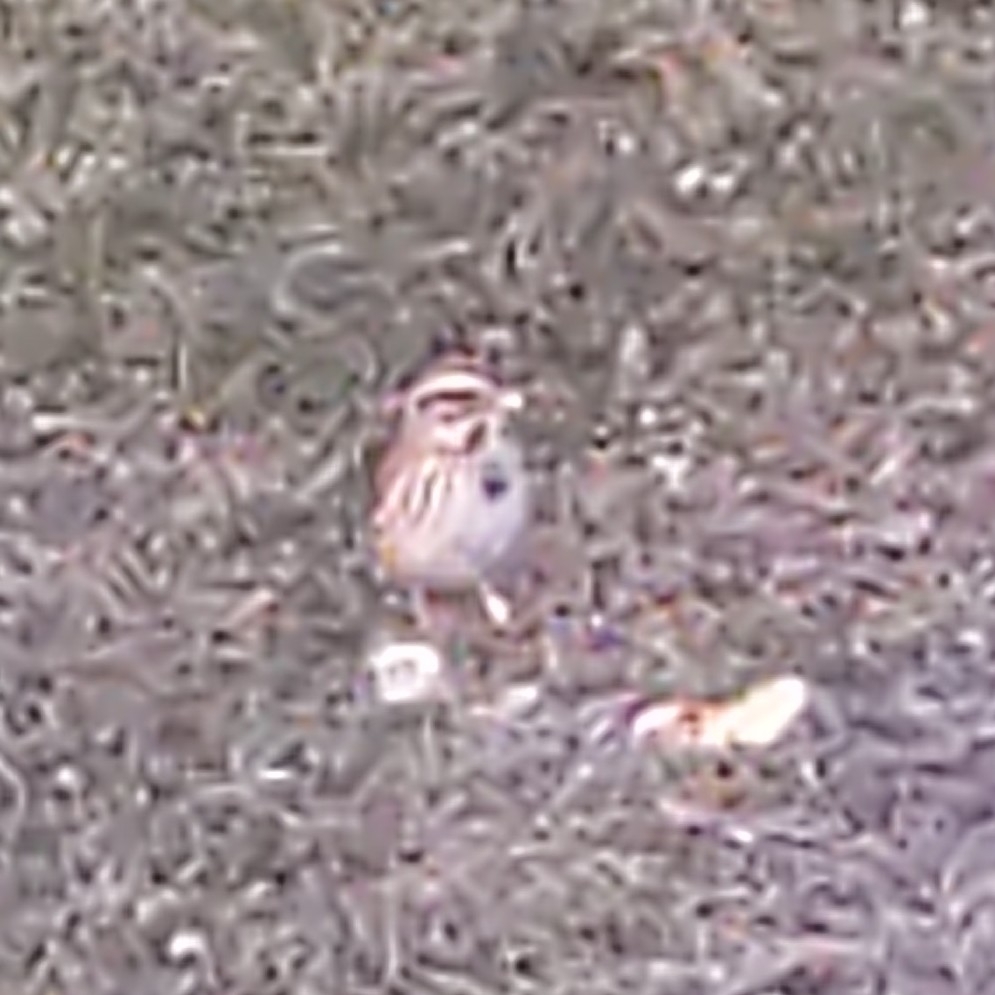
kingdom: Animalia
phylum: Chordata
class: Aves
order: Passeriformes
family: Passerellidae
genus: Melospiza
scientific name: Melospiza melodia
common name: Song sparrow
